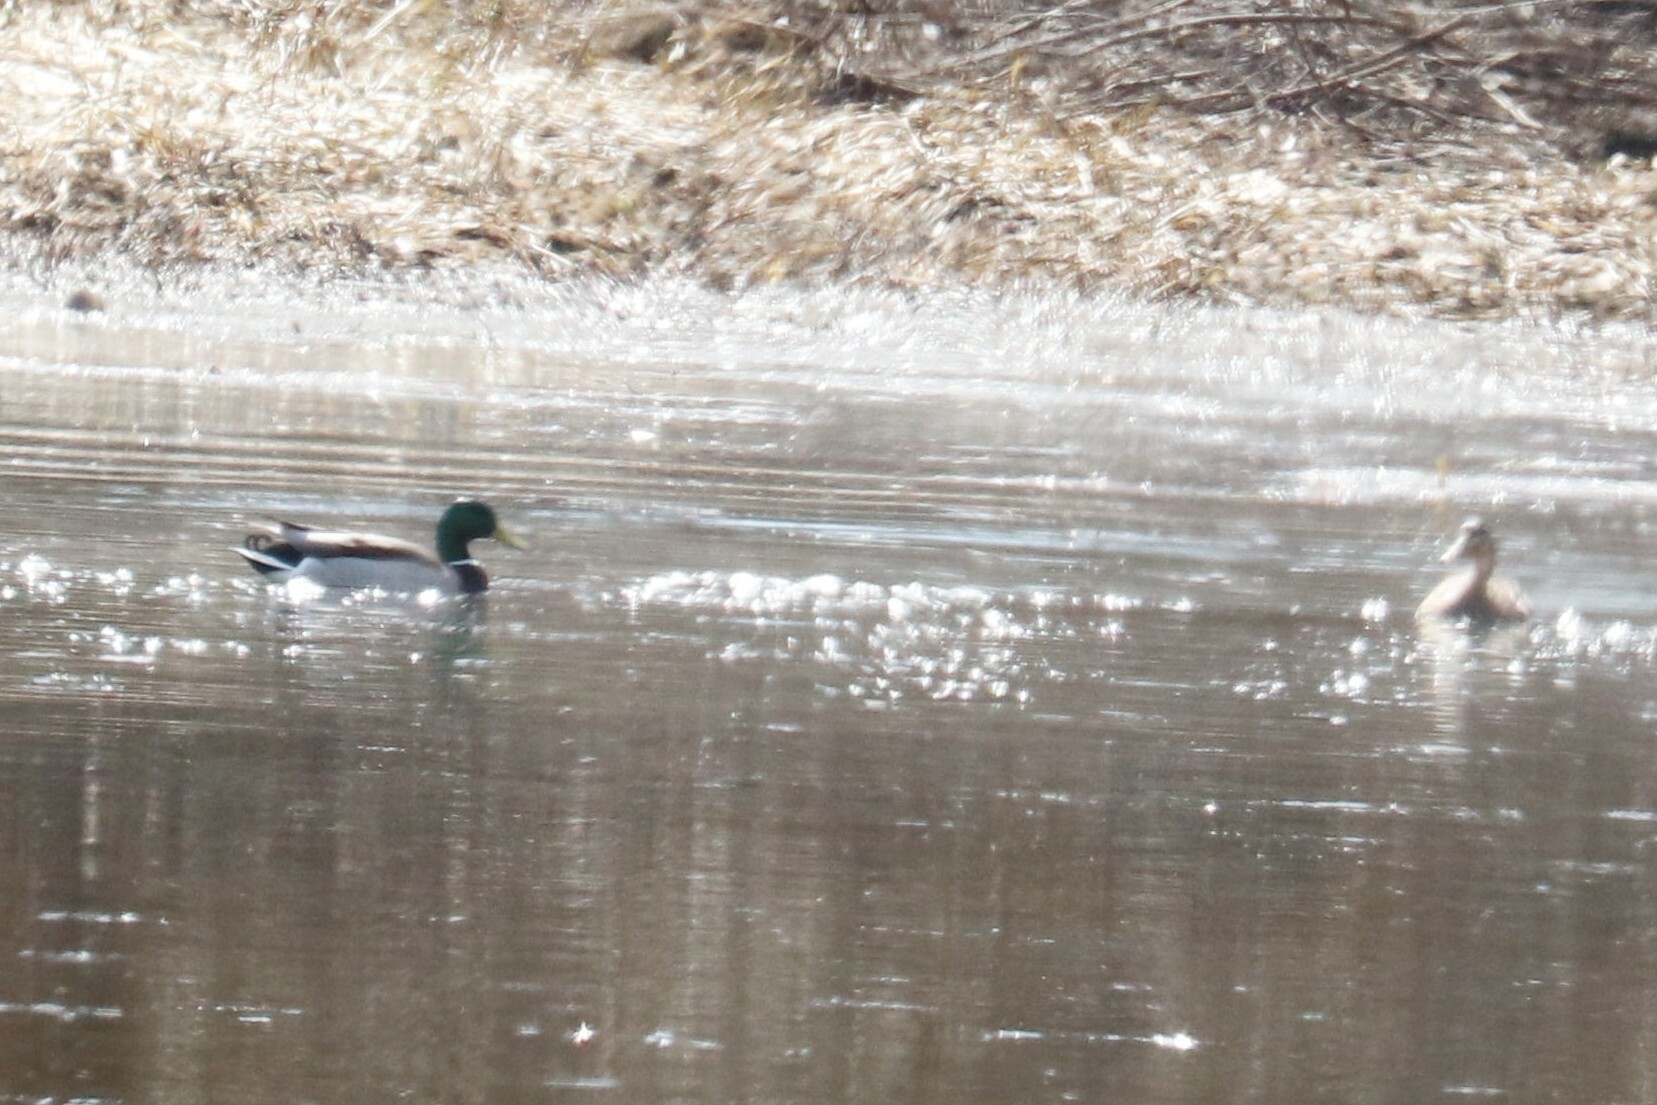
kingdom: Animalia
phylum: Chordata
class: Aves
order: Anseriformes
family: Anatidae
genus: Anas
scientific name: Anas platyrhynchos
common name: Mallard
